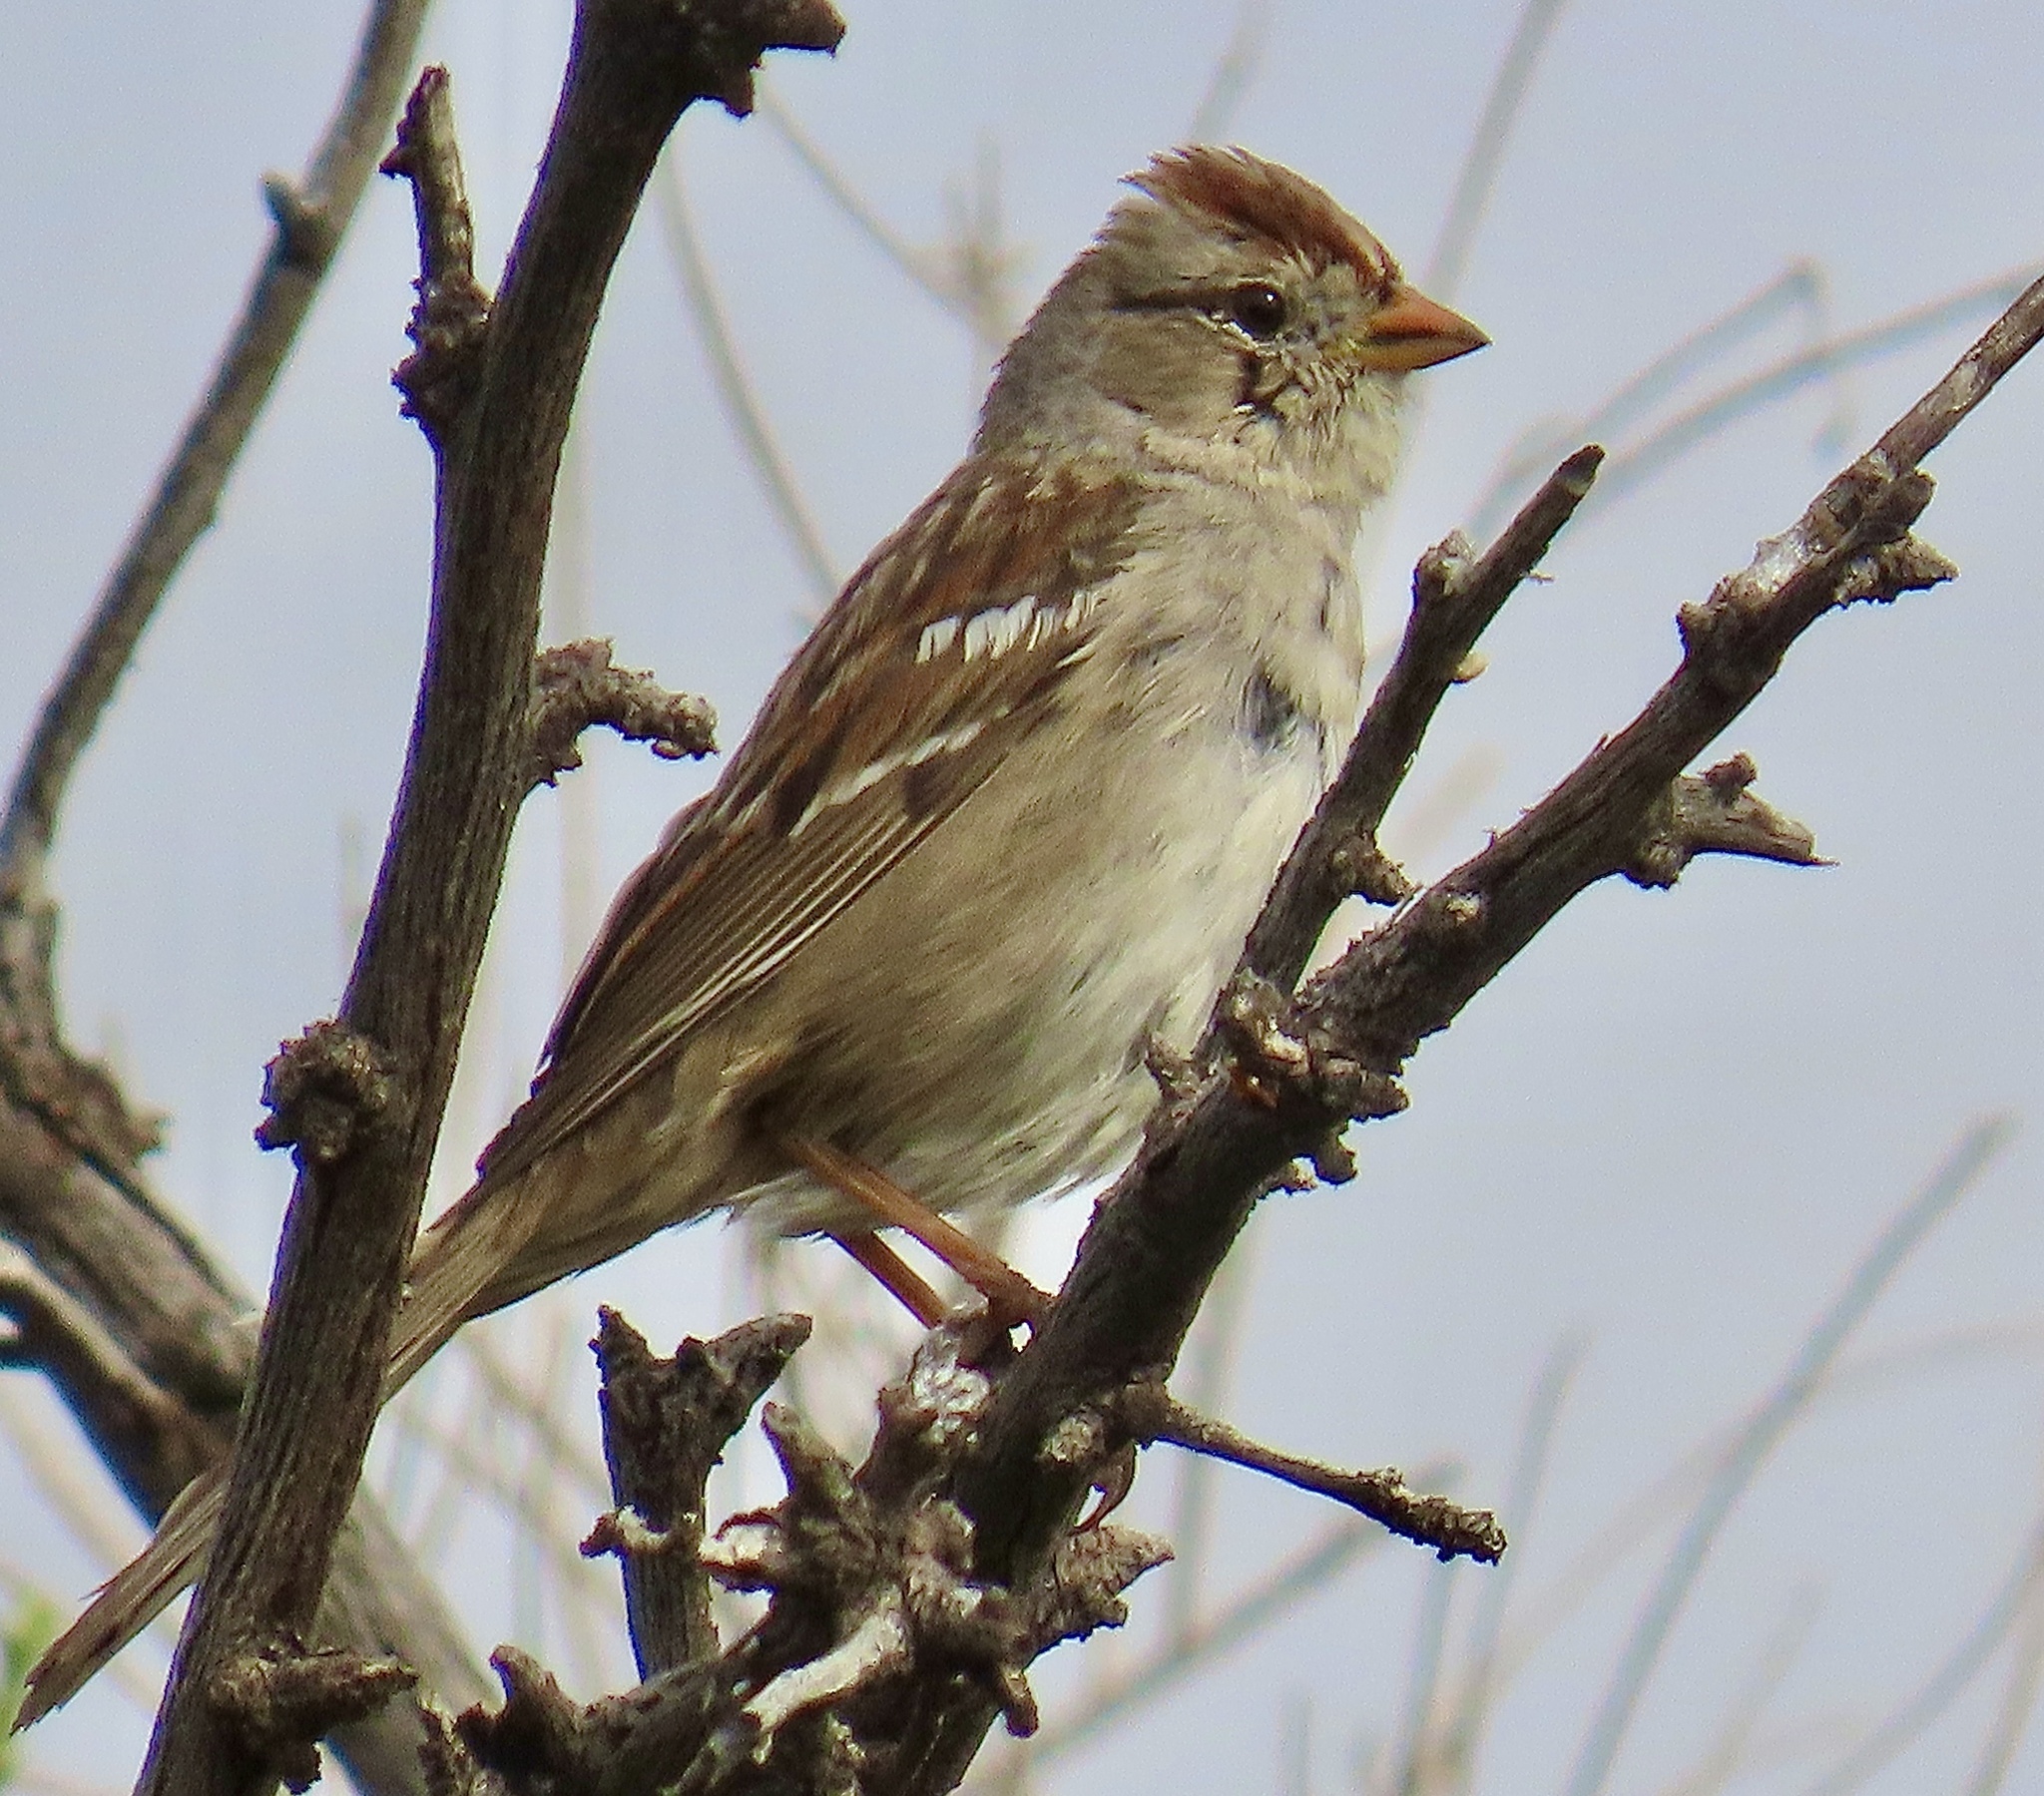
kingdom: Animalia
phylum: Chordata
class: Aves
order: Passeriformes
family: Passerellidae
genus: Zonotrichia
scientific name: Zonotrichia leucophrys
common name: White-crowned sparrow
